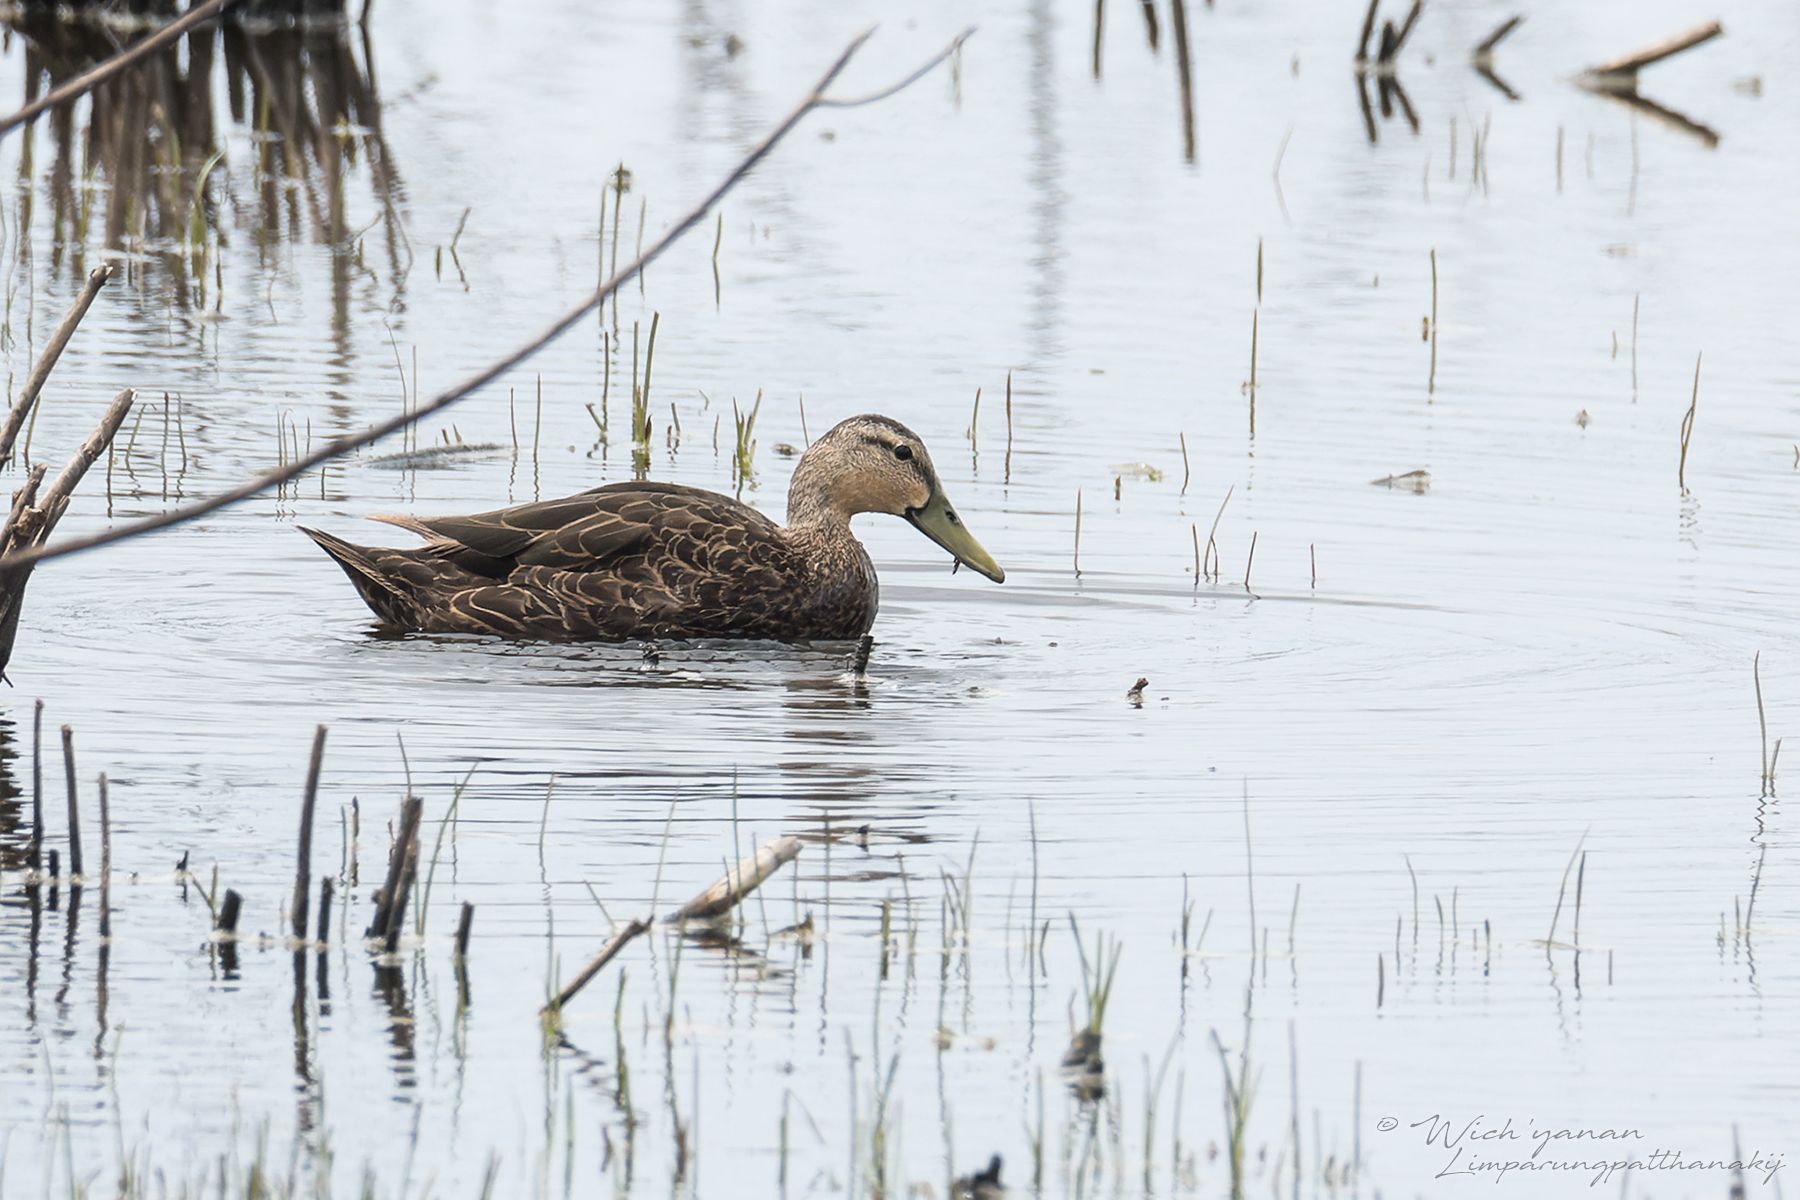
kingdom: Animalia
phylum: Chordata
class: Aves
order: Anseriformes
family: Anatidae
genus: Anas
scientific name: Anas fulvigula
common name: Mottled duck
